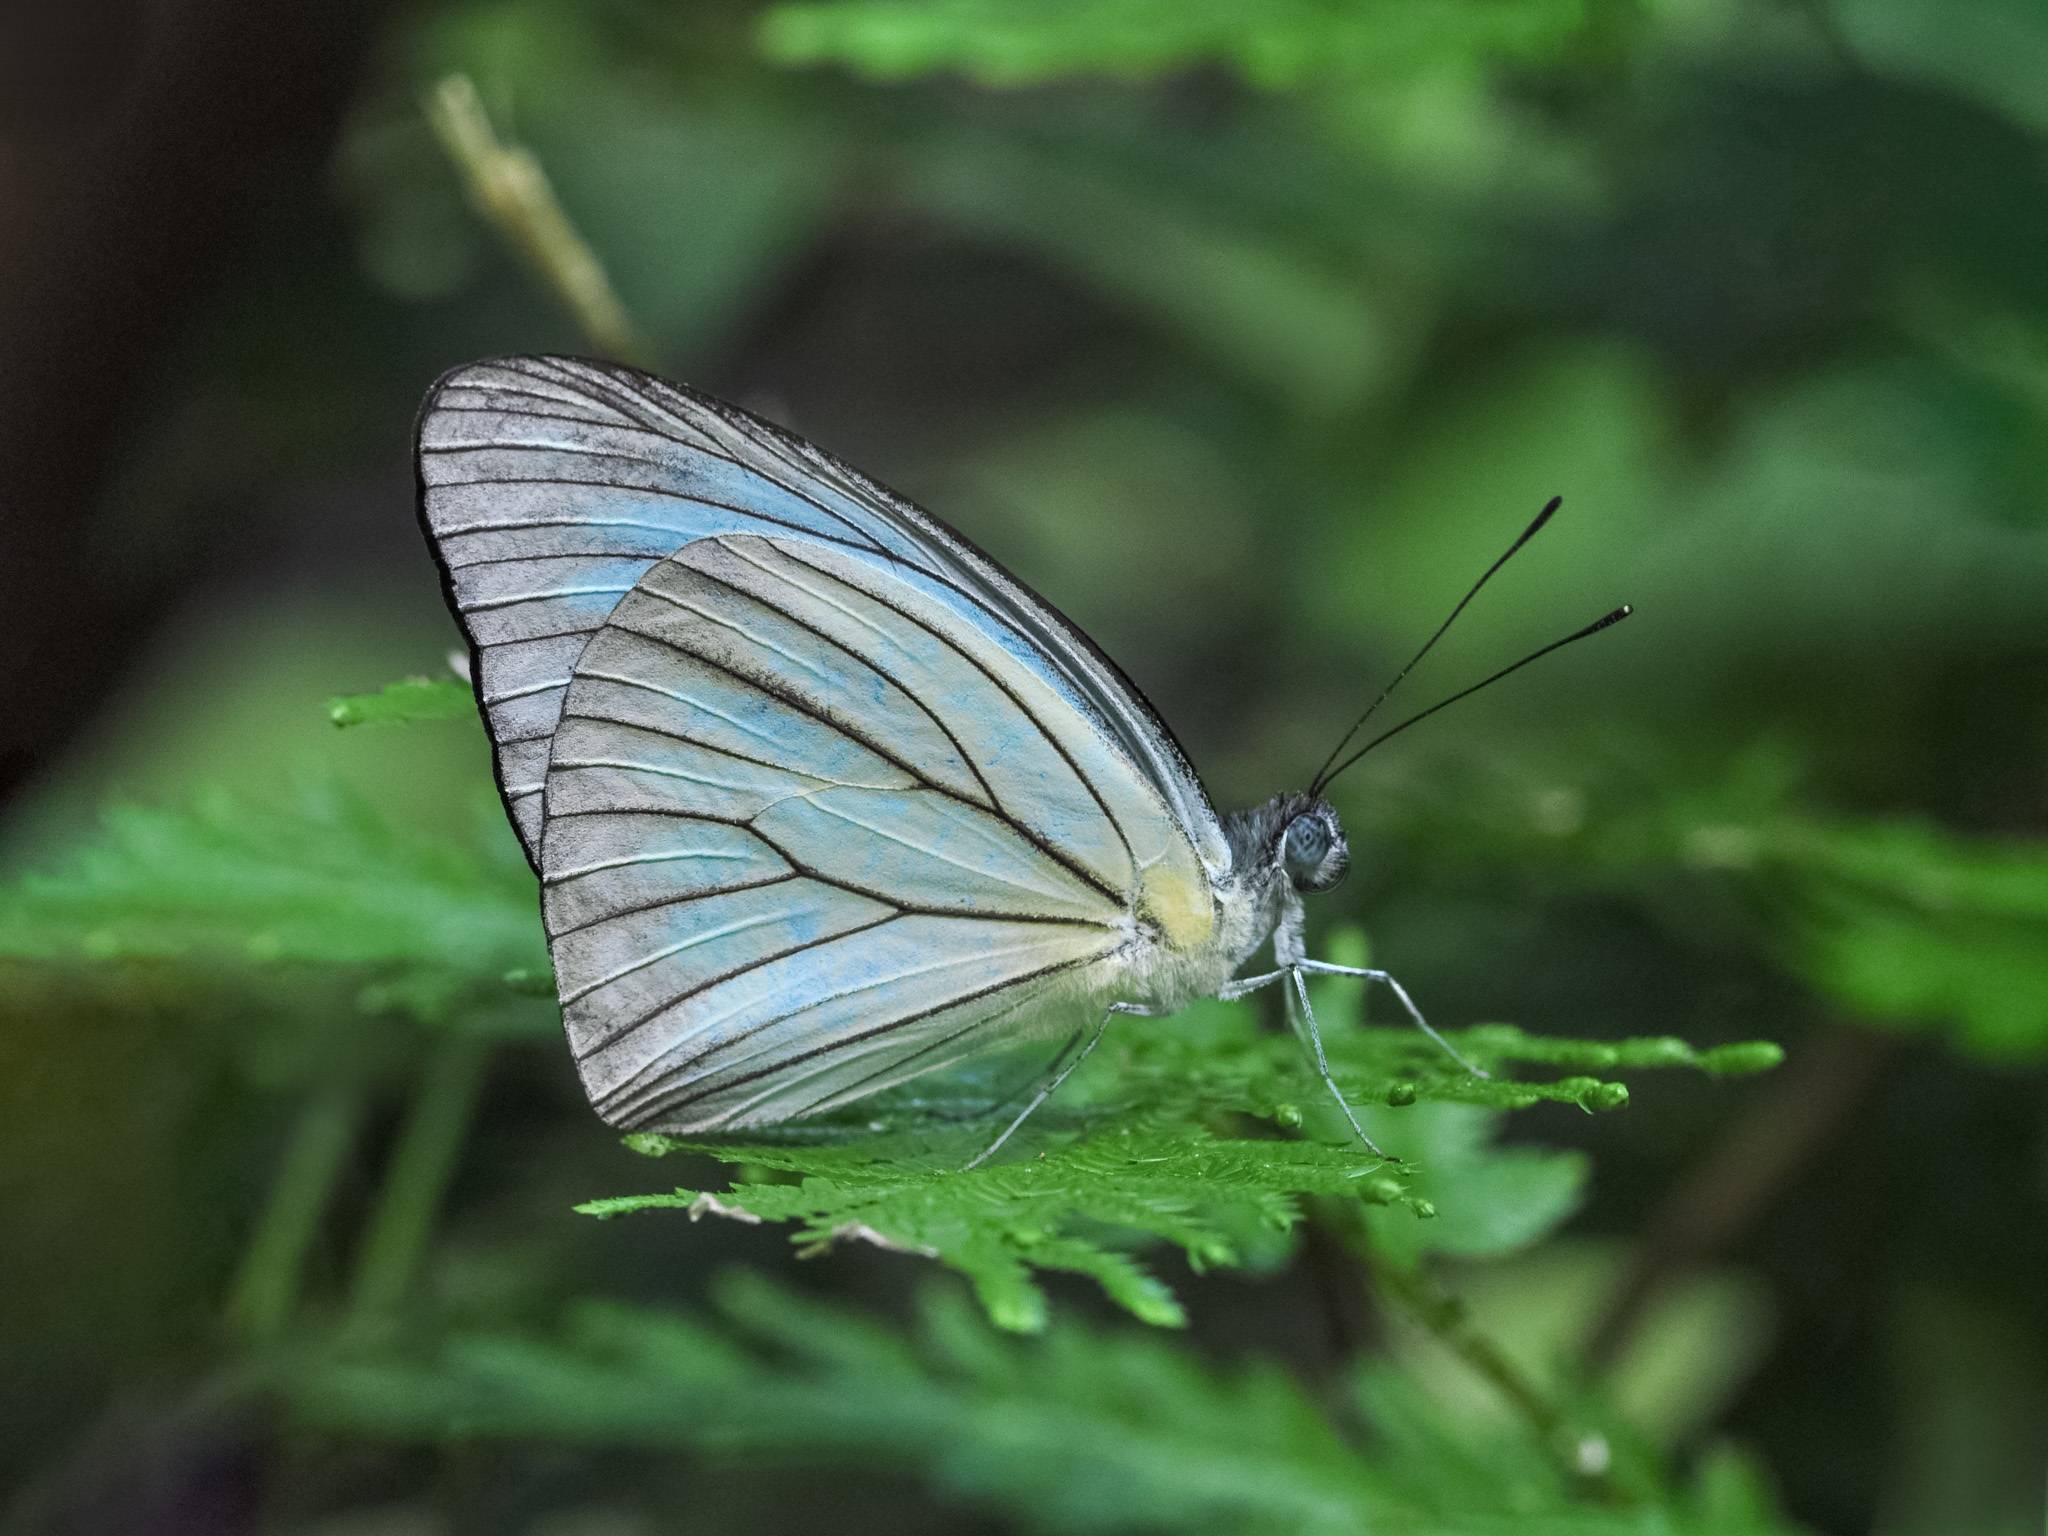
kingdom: Animalia
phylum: Arthropoda
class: Insecta
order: Lepidoptera
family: Pieridae
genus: Pareronia
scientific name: Pareronia valeria
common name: Common wanderer?
